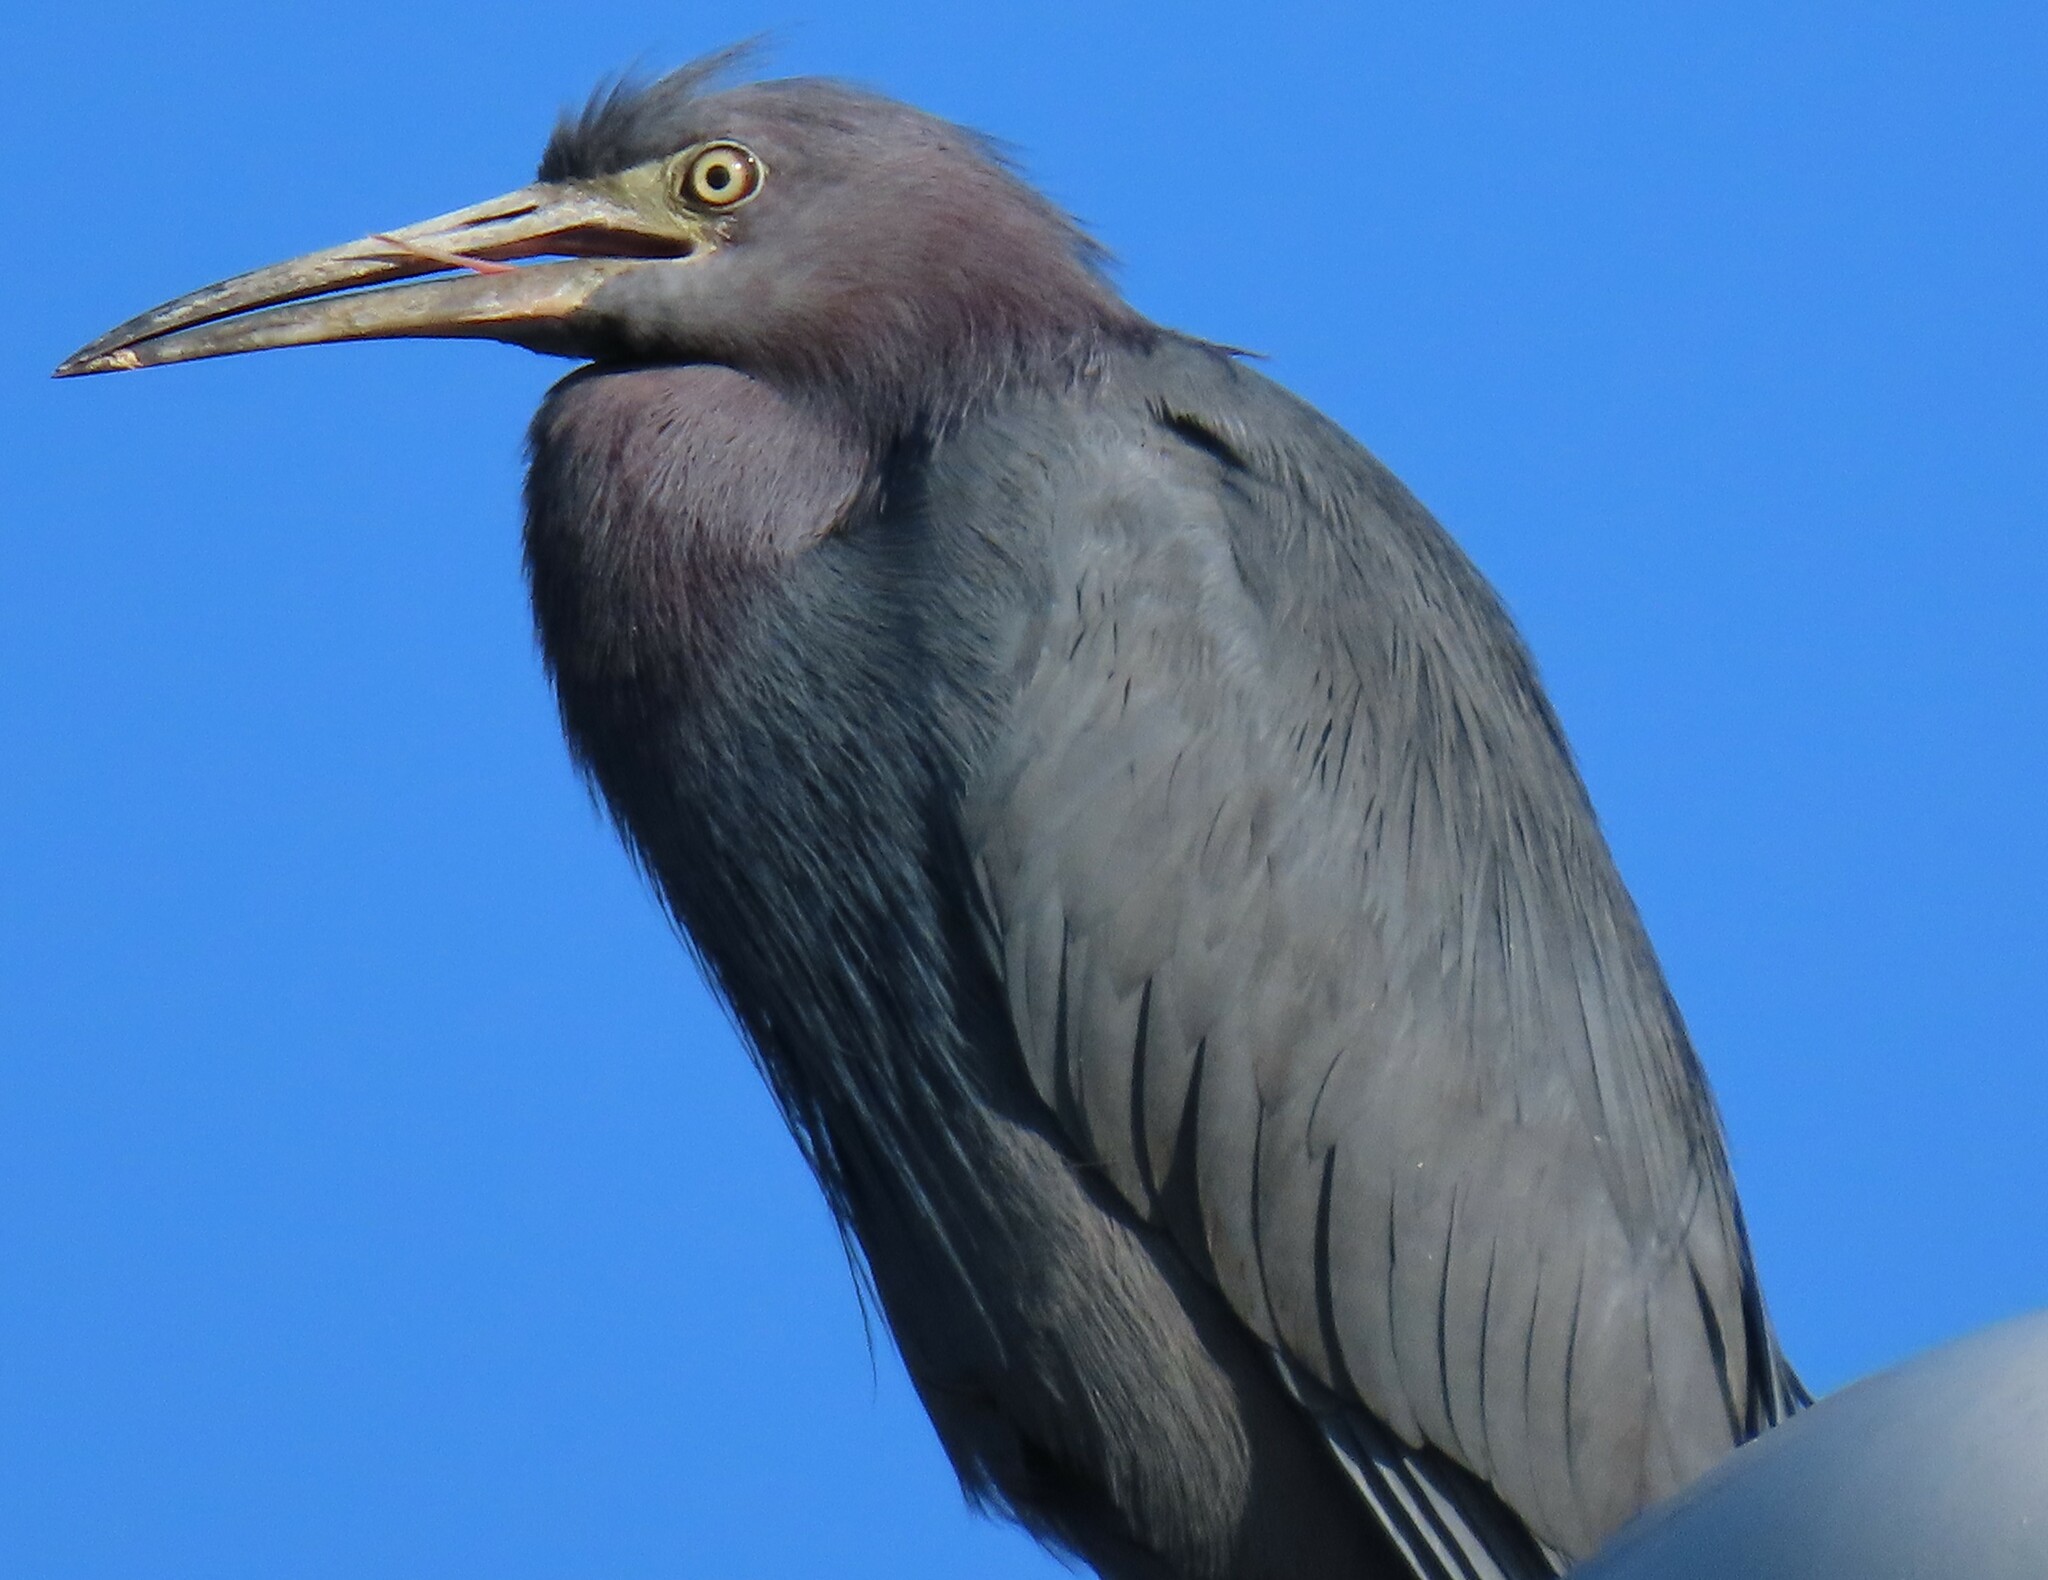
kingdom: Animalia
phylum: Chordata
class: Aves
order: Pelecaniformes
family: Ardeidae
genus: Egretta
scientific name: Egretta caerulea
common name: Little blue heron
